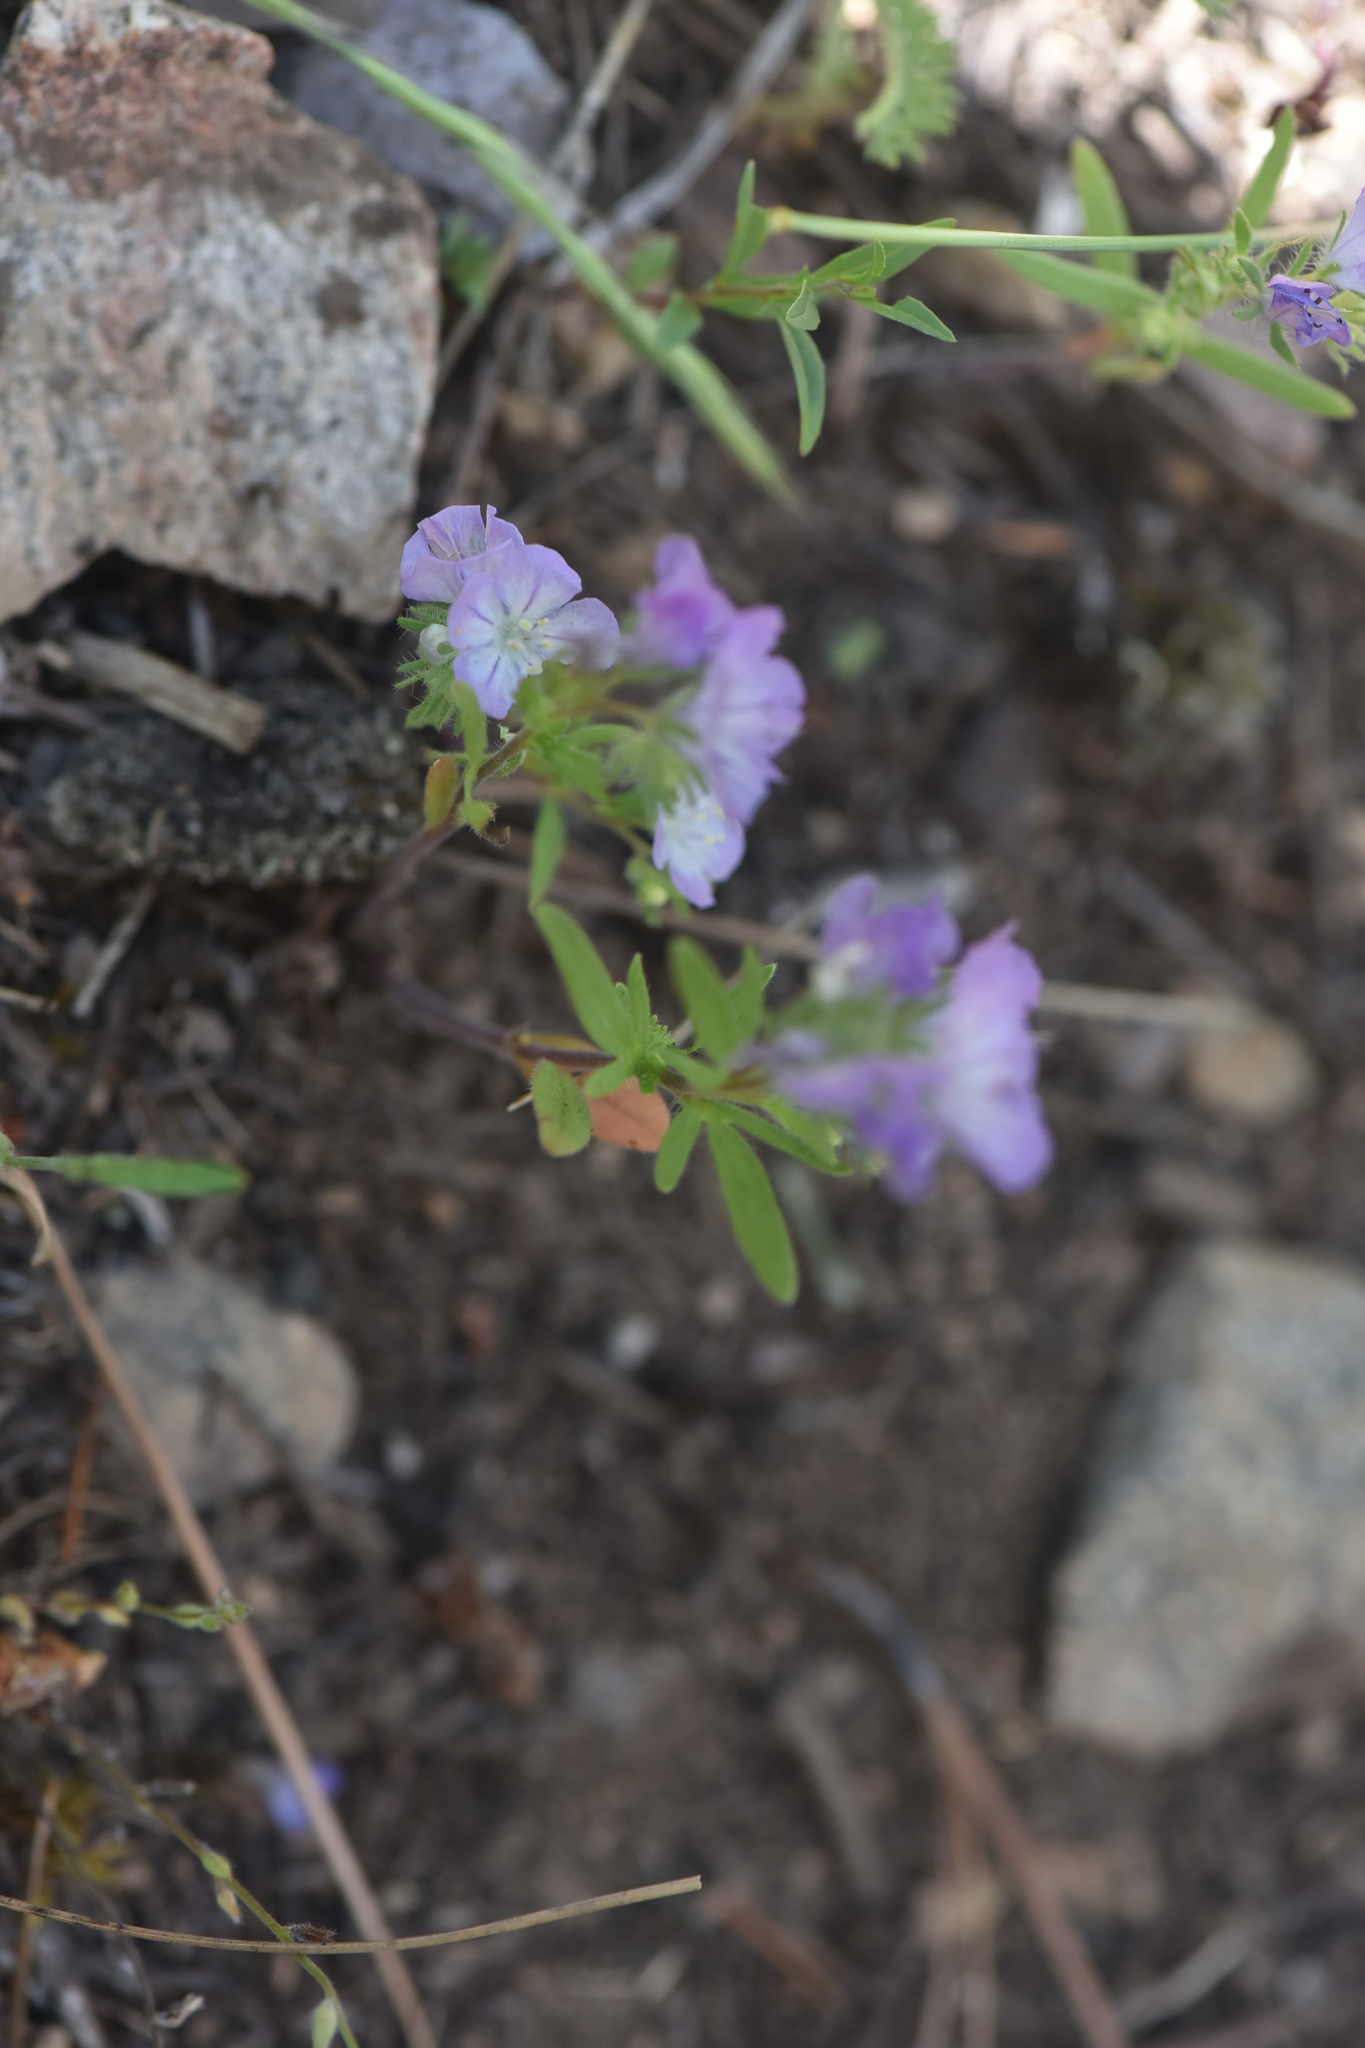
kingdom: Plantae
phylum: Tracheophyta
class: Magnoliopsida
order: Boraginales
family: Hydrophyllaceae
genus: Phacelia
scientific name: Phacelia linearis
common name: Linear-leaved phacelia
